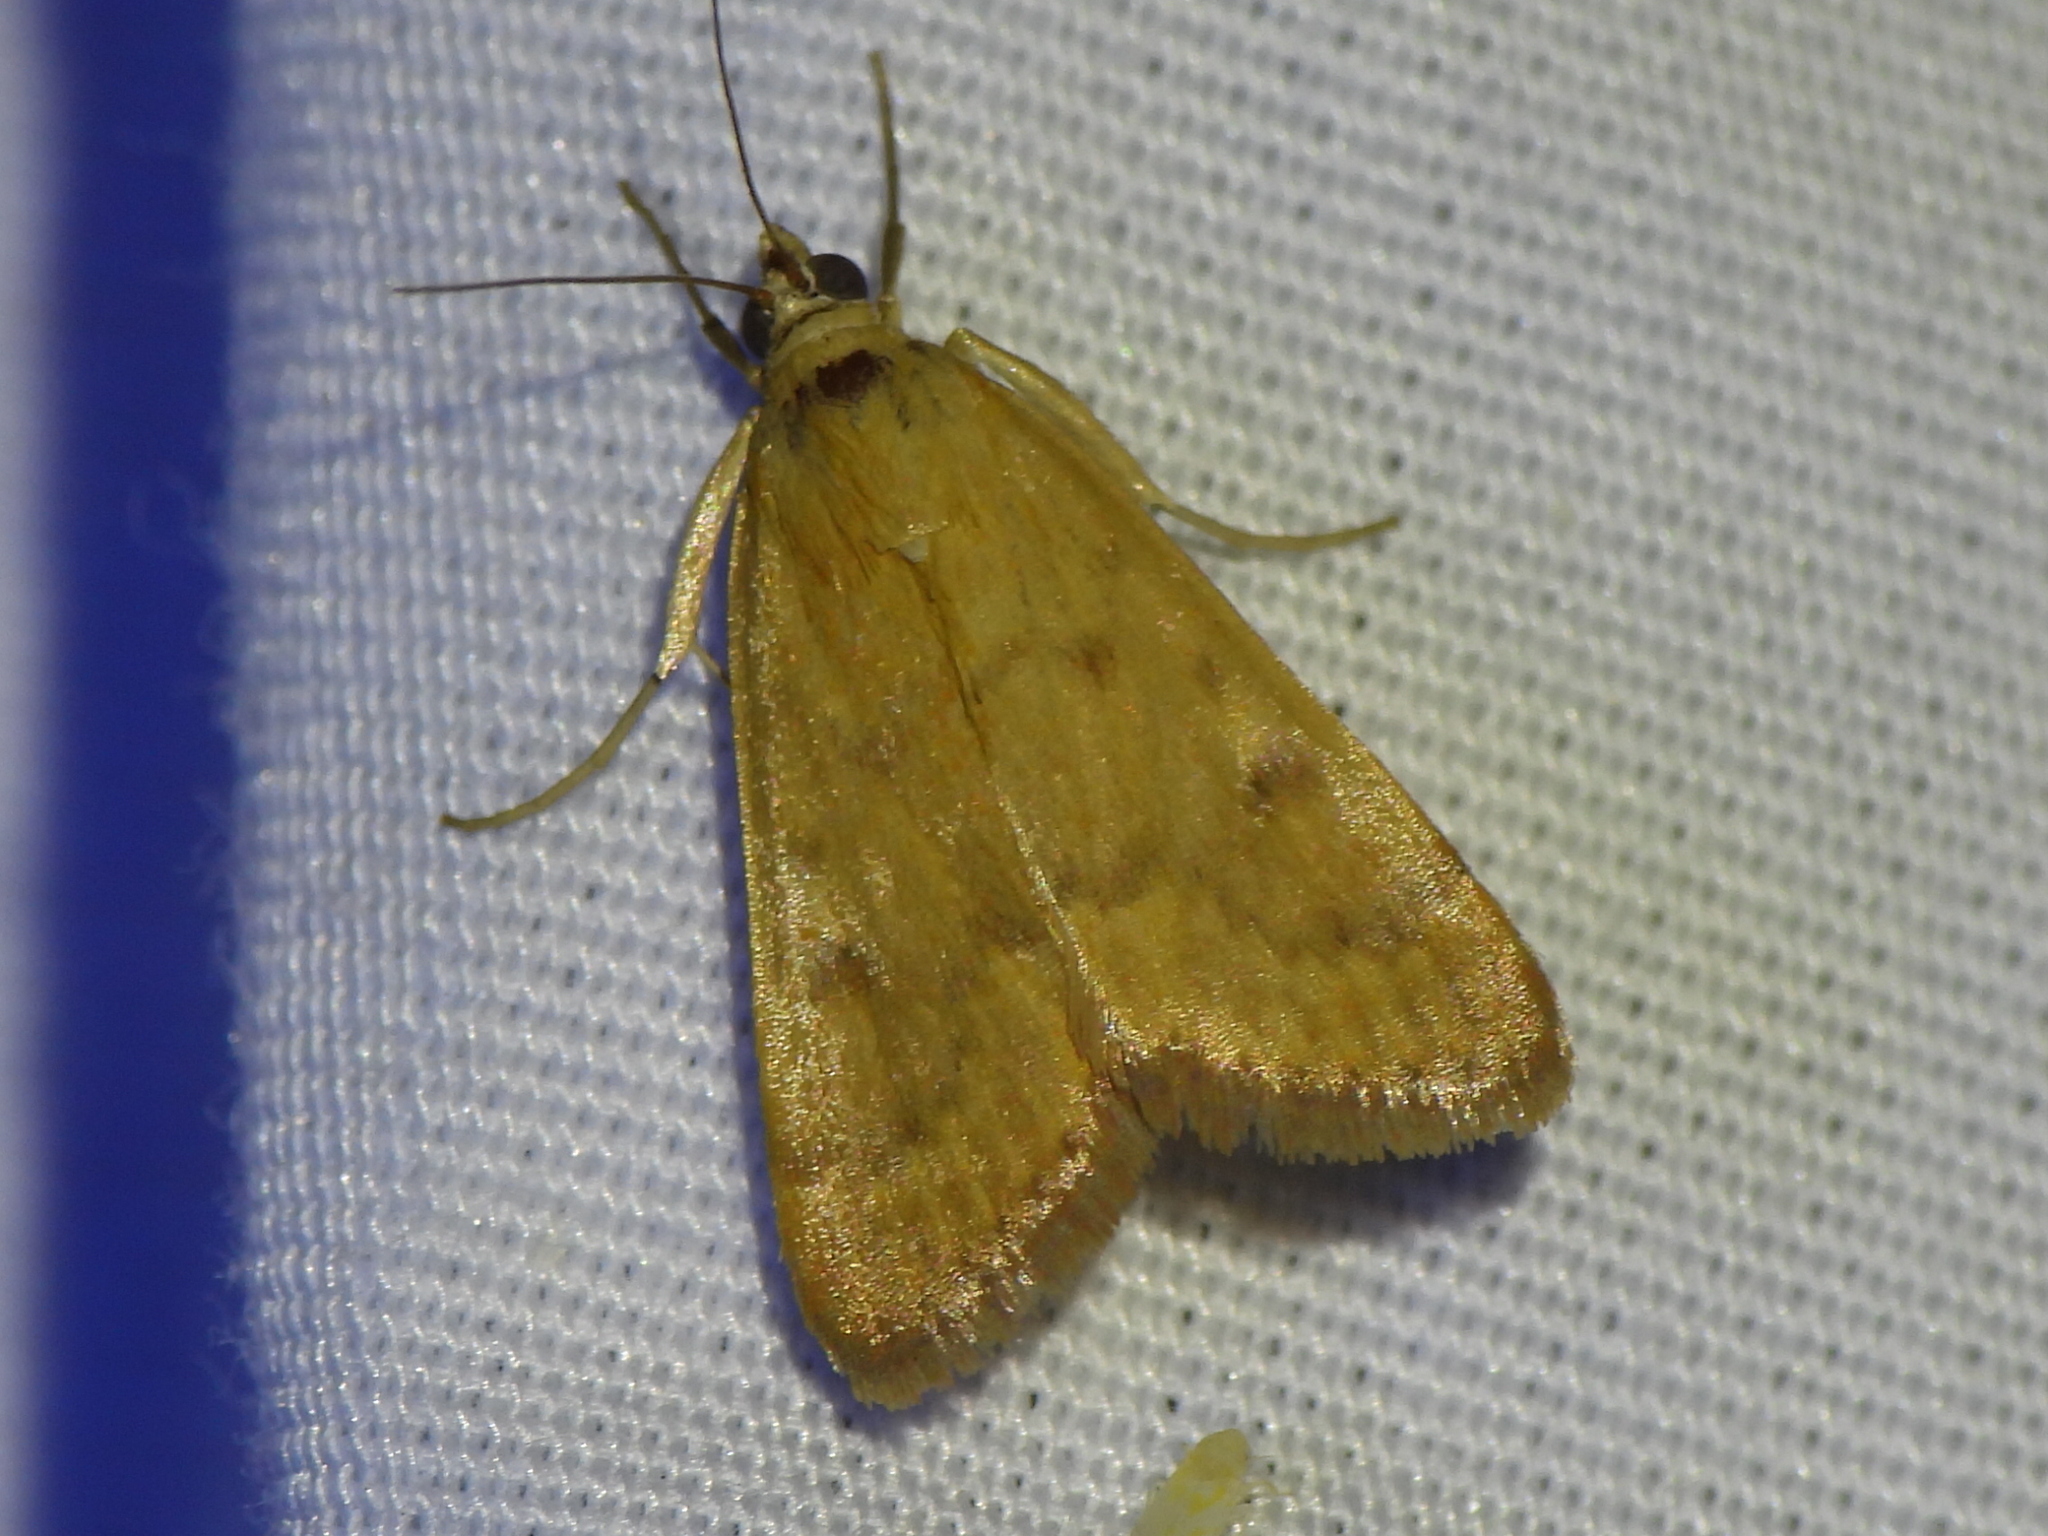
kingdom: Animalia
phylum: Arthropoda
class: Insecta
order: Lepidoptera
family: Crambidae
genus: Achyra
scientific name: Achyra rantalis
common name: Garden webworm
